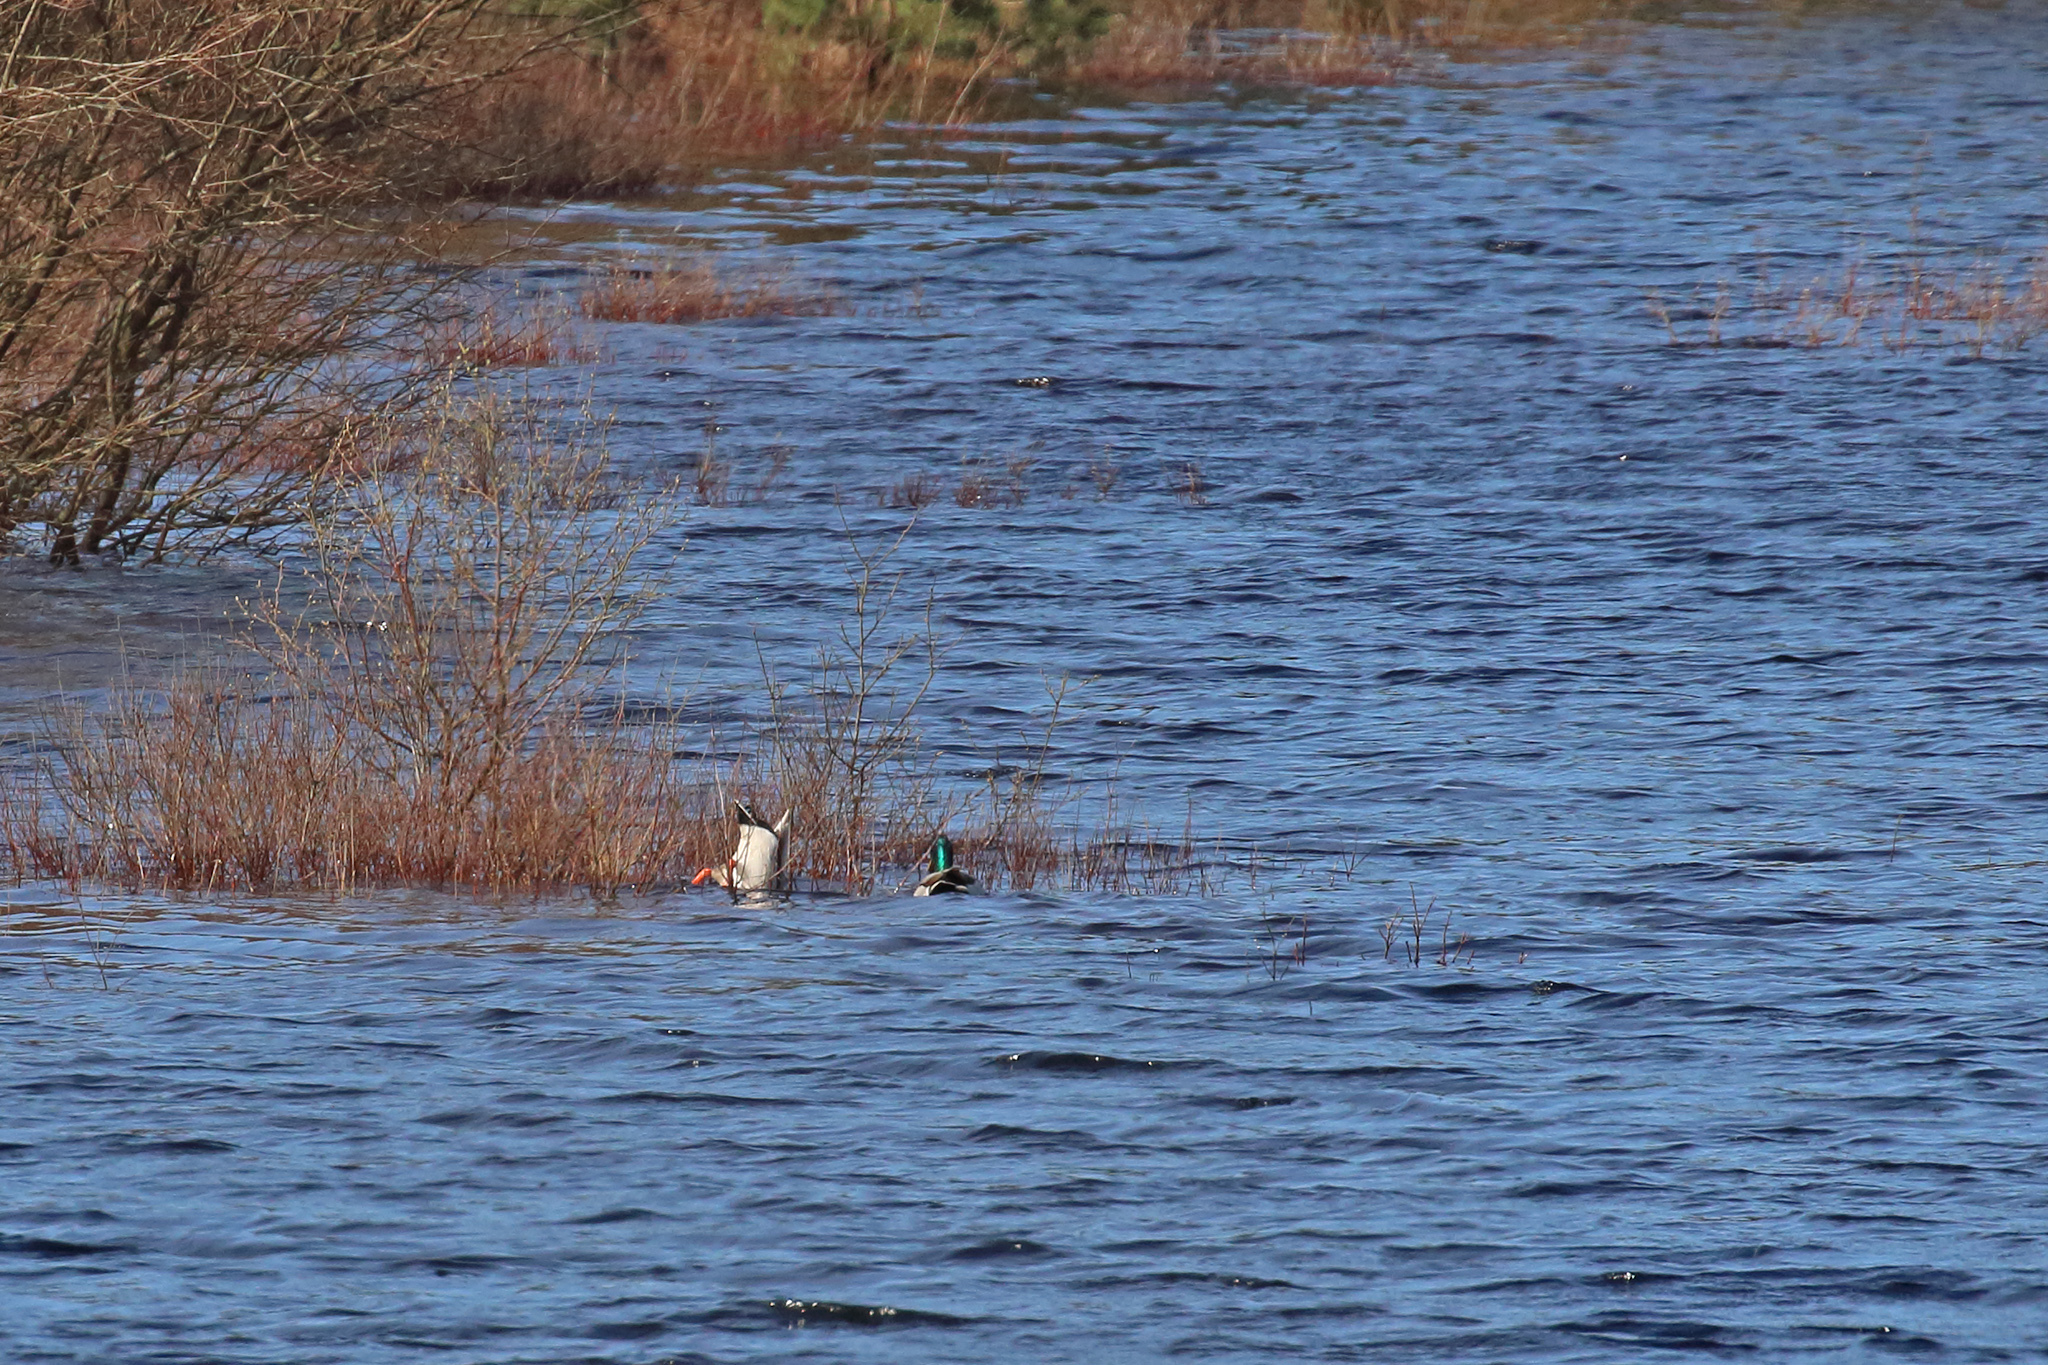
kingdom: Animalia
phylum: Chordata
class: Aves
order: Anseriformes
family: Anatidae
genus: Anas
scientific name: Anas platyrhynchos
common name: Mallard
